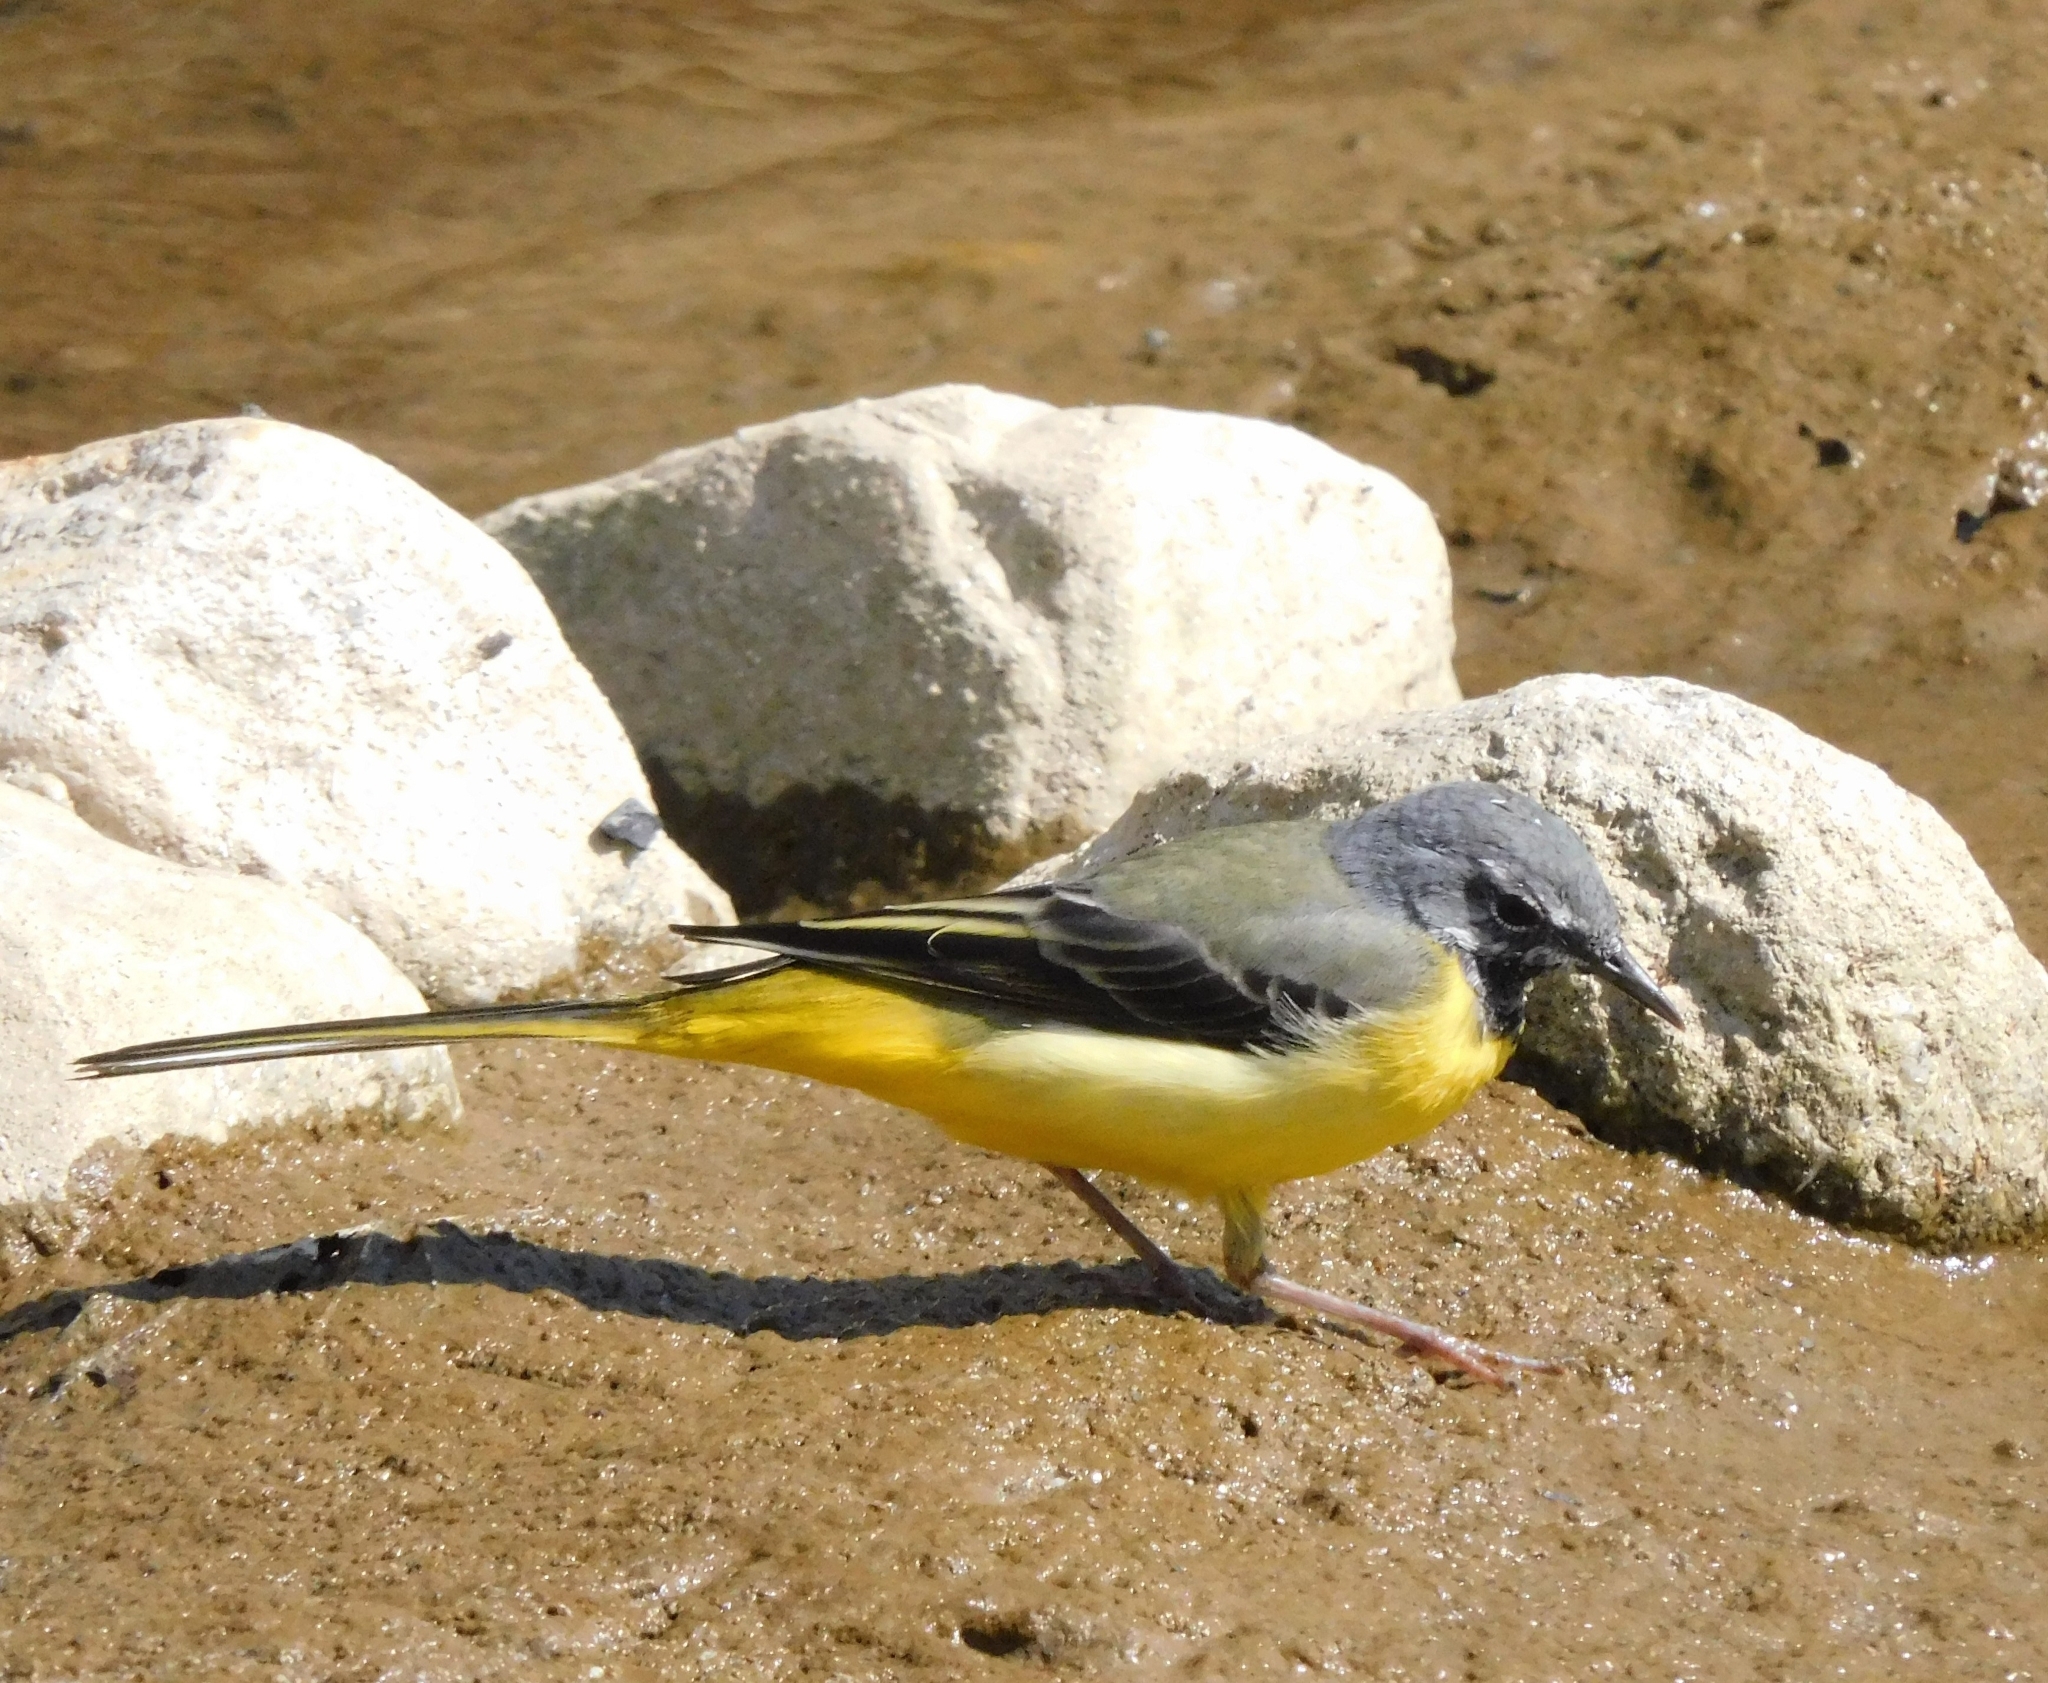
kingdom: Animalia
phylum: Chordata
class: Aves
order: Passeriformes
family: Motacillidae
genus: Motacilla
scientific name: Motacilla cinerea
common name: Grey wagtail
